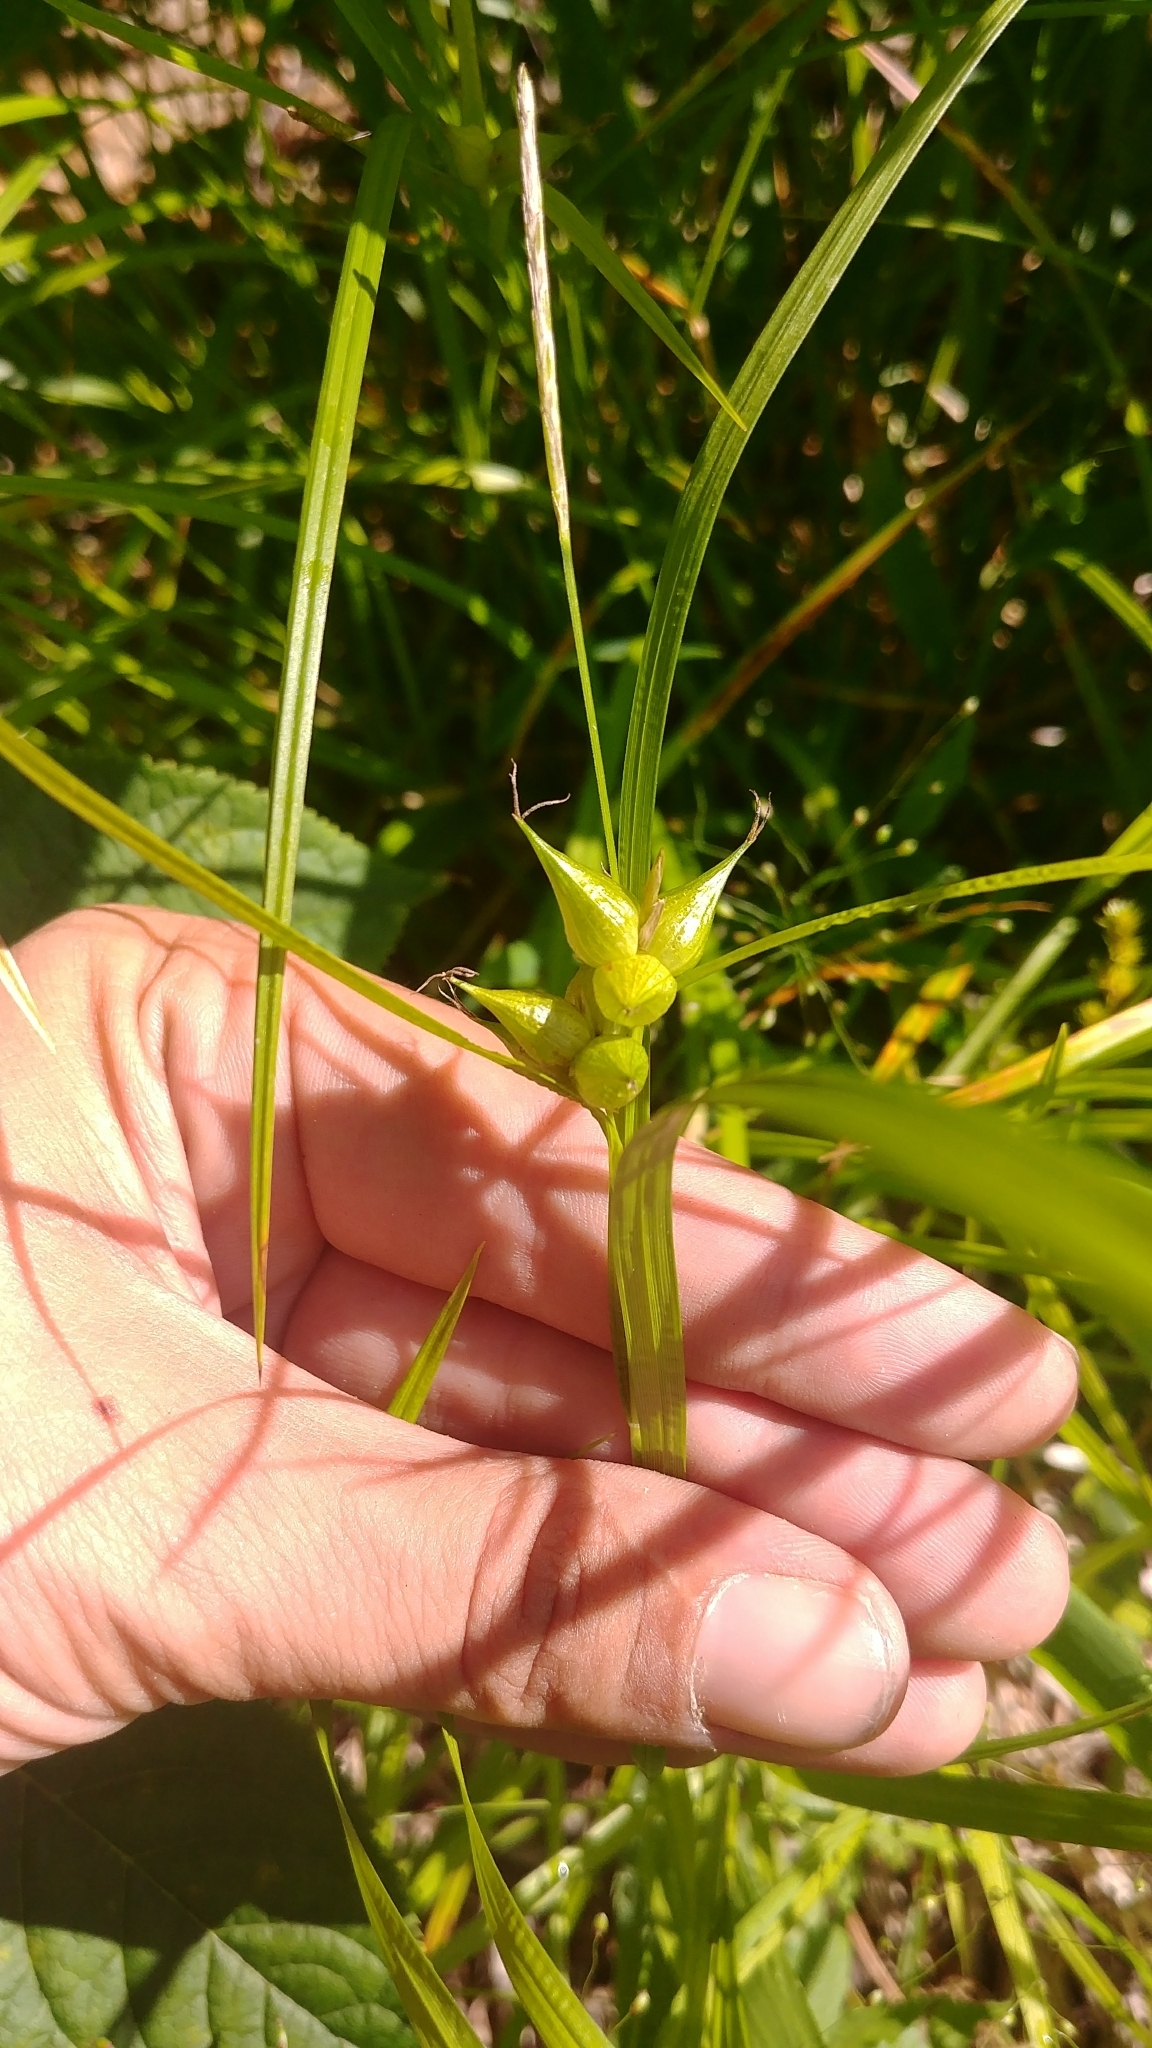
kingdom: Plantae
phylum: Tracheophyta
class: Liliopsida
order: Poales
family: Cyperaceae
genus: Carex
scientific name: Carex intumescens
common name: Greater bladder sedge
